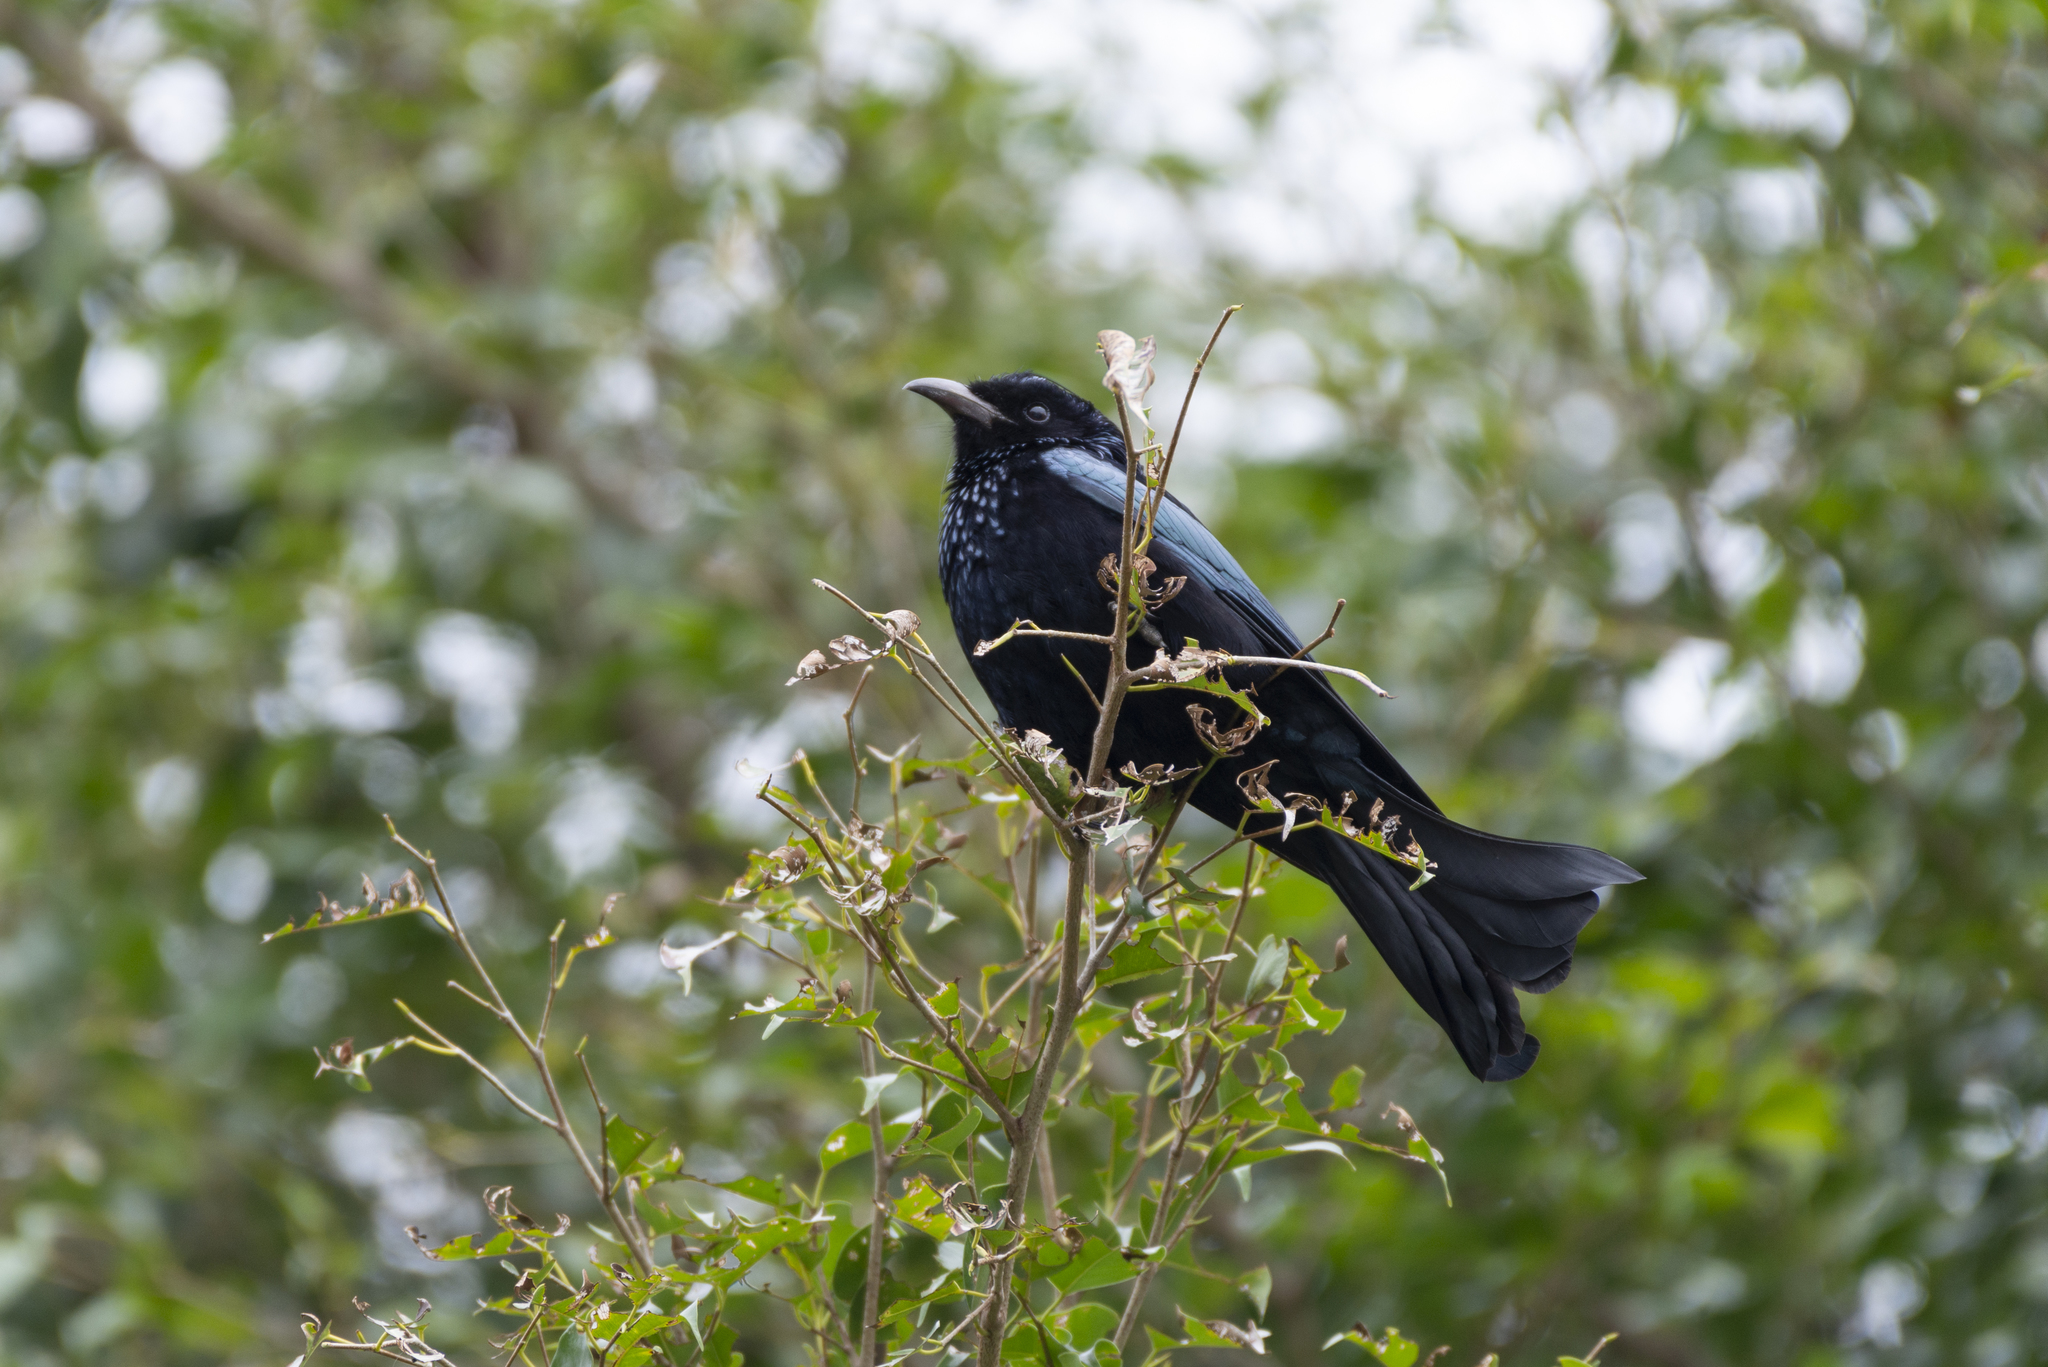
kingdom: Animalia
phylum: Chordata
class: Aves
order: Passeriformes
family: Dicruridae
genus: Dicrurus
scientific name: Dicrurus hottentottus
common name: Hair-crested drongo
